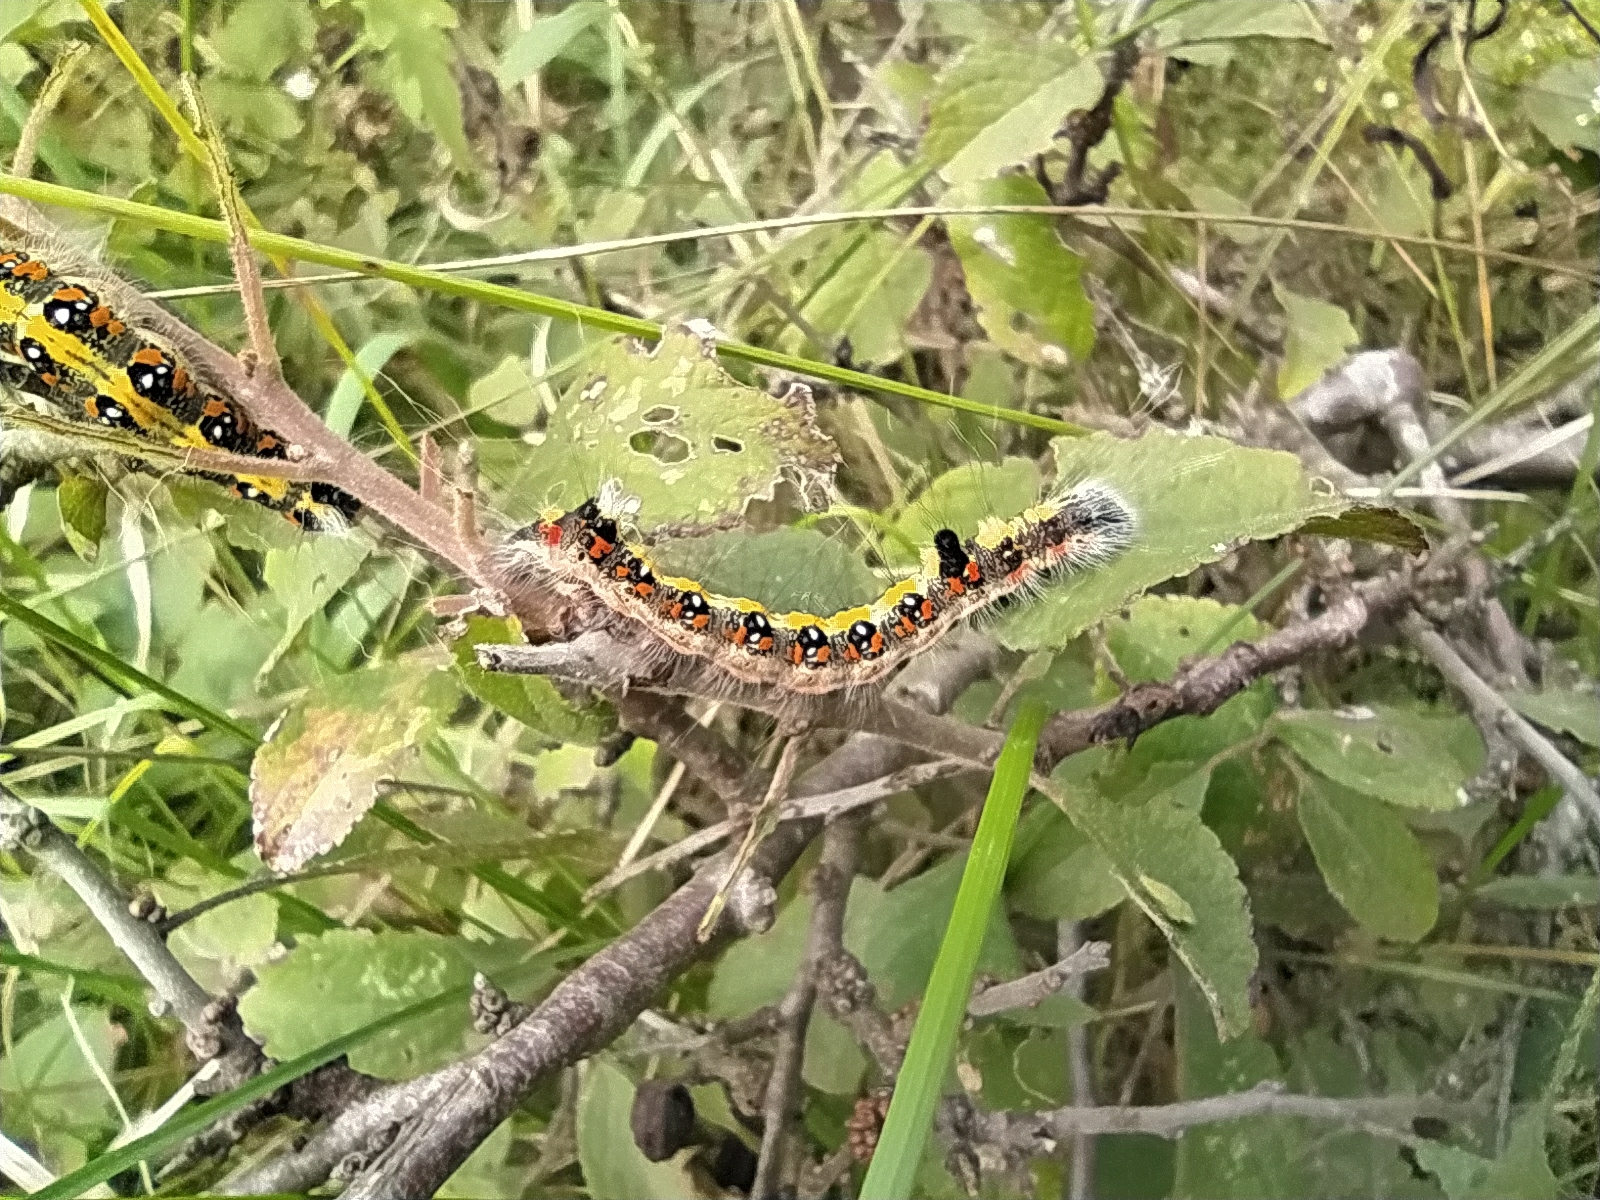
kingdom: Animalia
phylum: Arthropoda
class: Insecta
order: Lepidoptera
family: Noctuidae
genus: Acronicta
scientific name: Acronicta tridens
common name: Dark dagger
